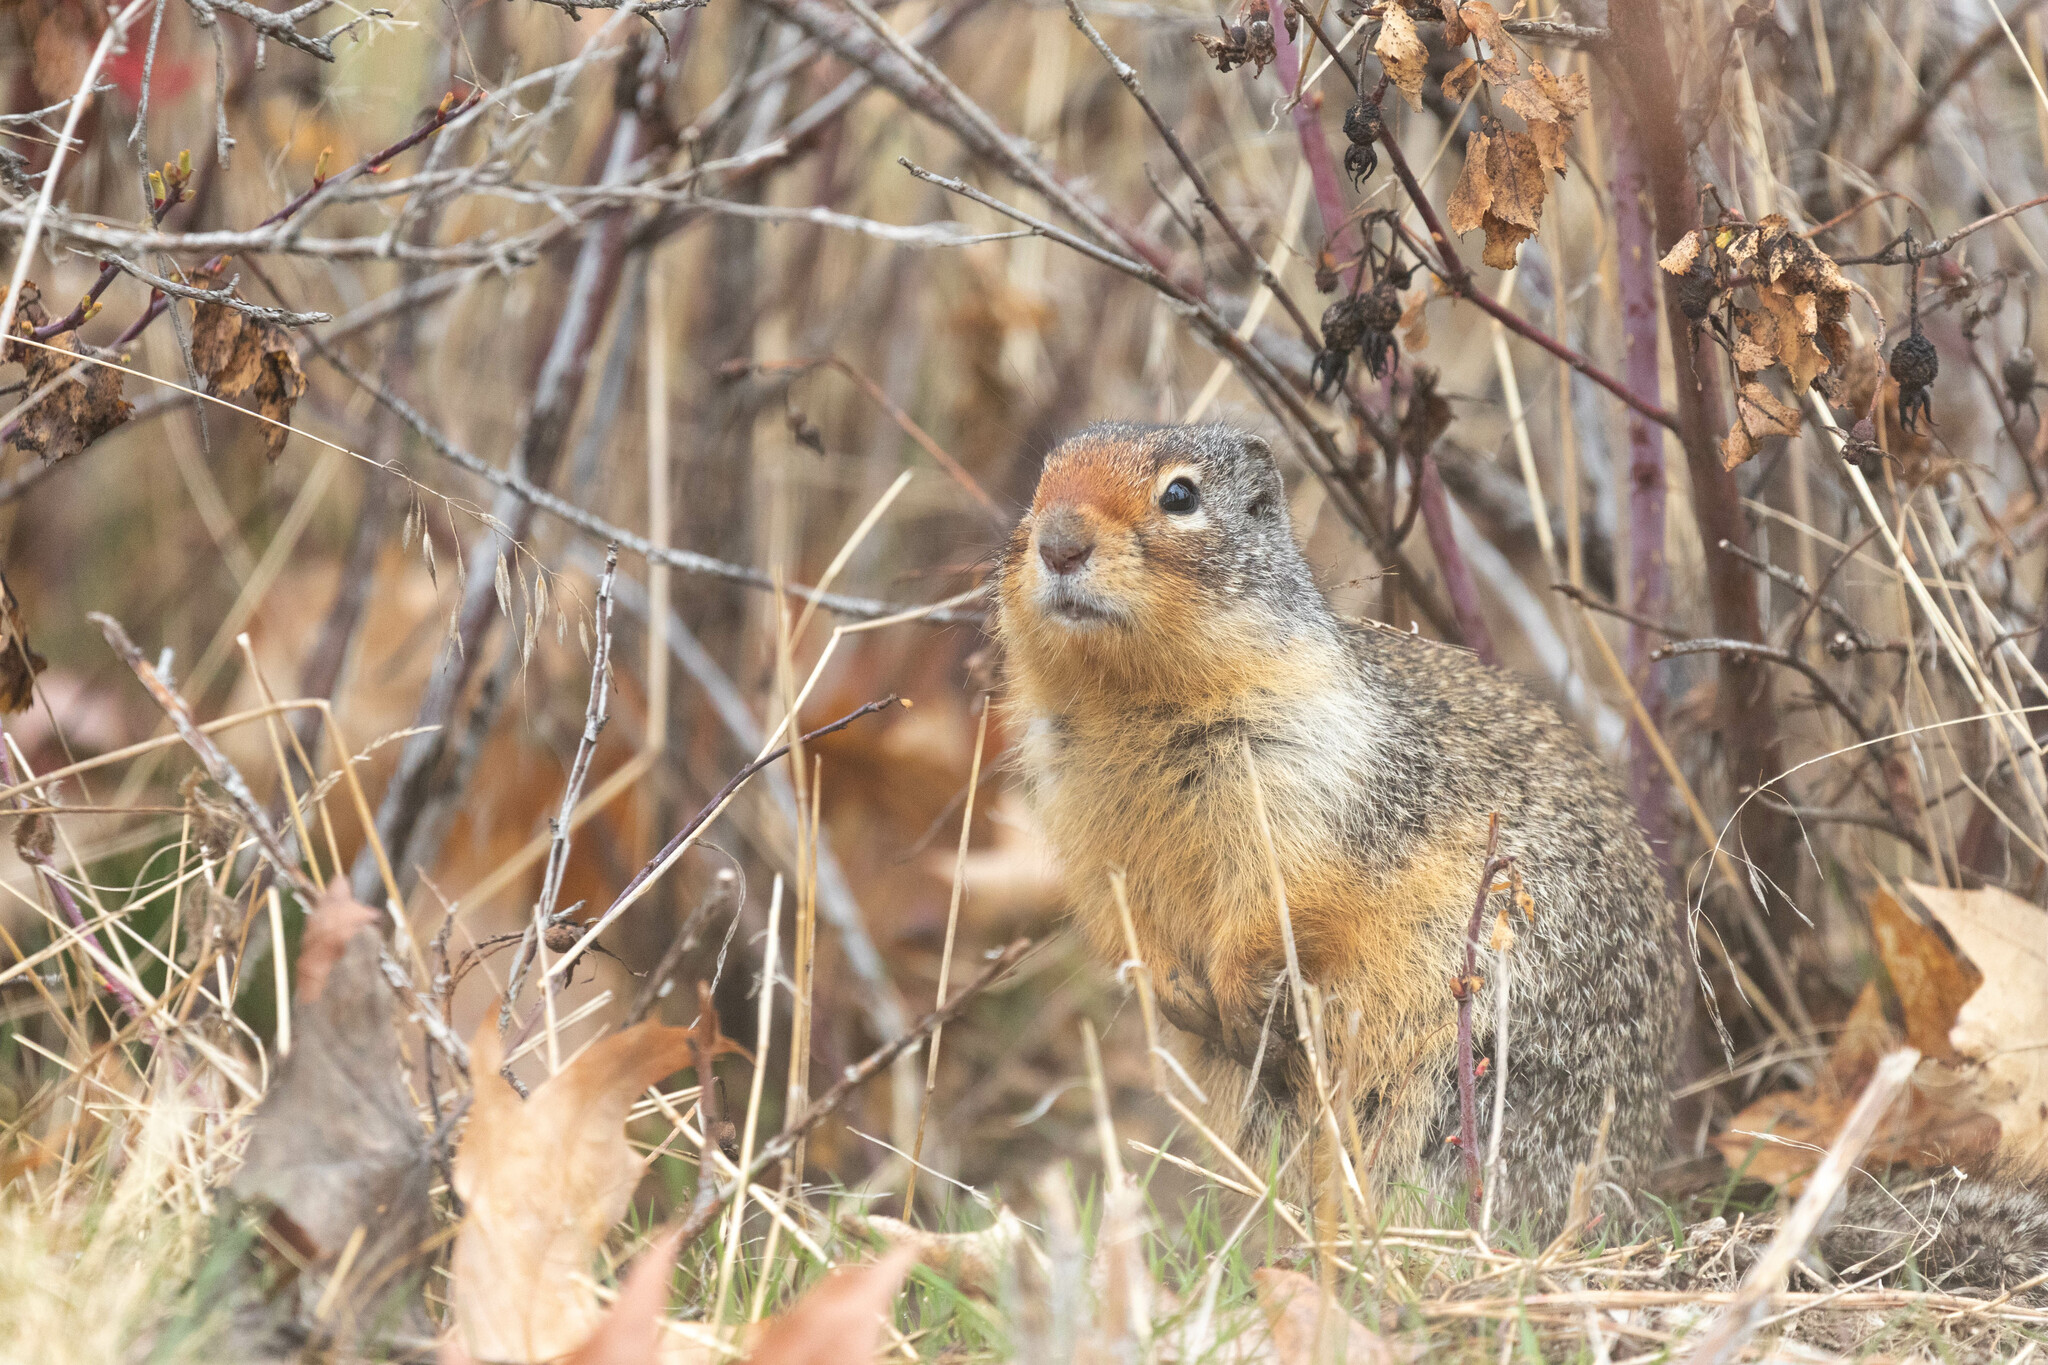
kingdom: Animalia
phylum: Chordata
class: Mammalia
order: Rodentia
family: Sciuridae
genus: Urocitellus
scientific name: Urocitellus columbianus
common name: Columbian ground squirrel
